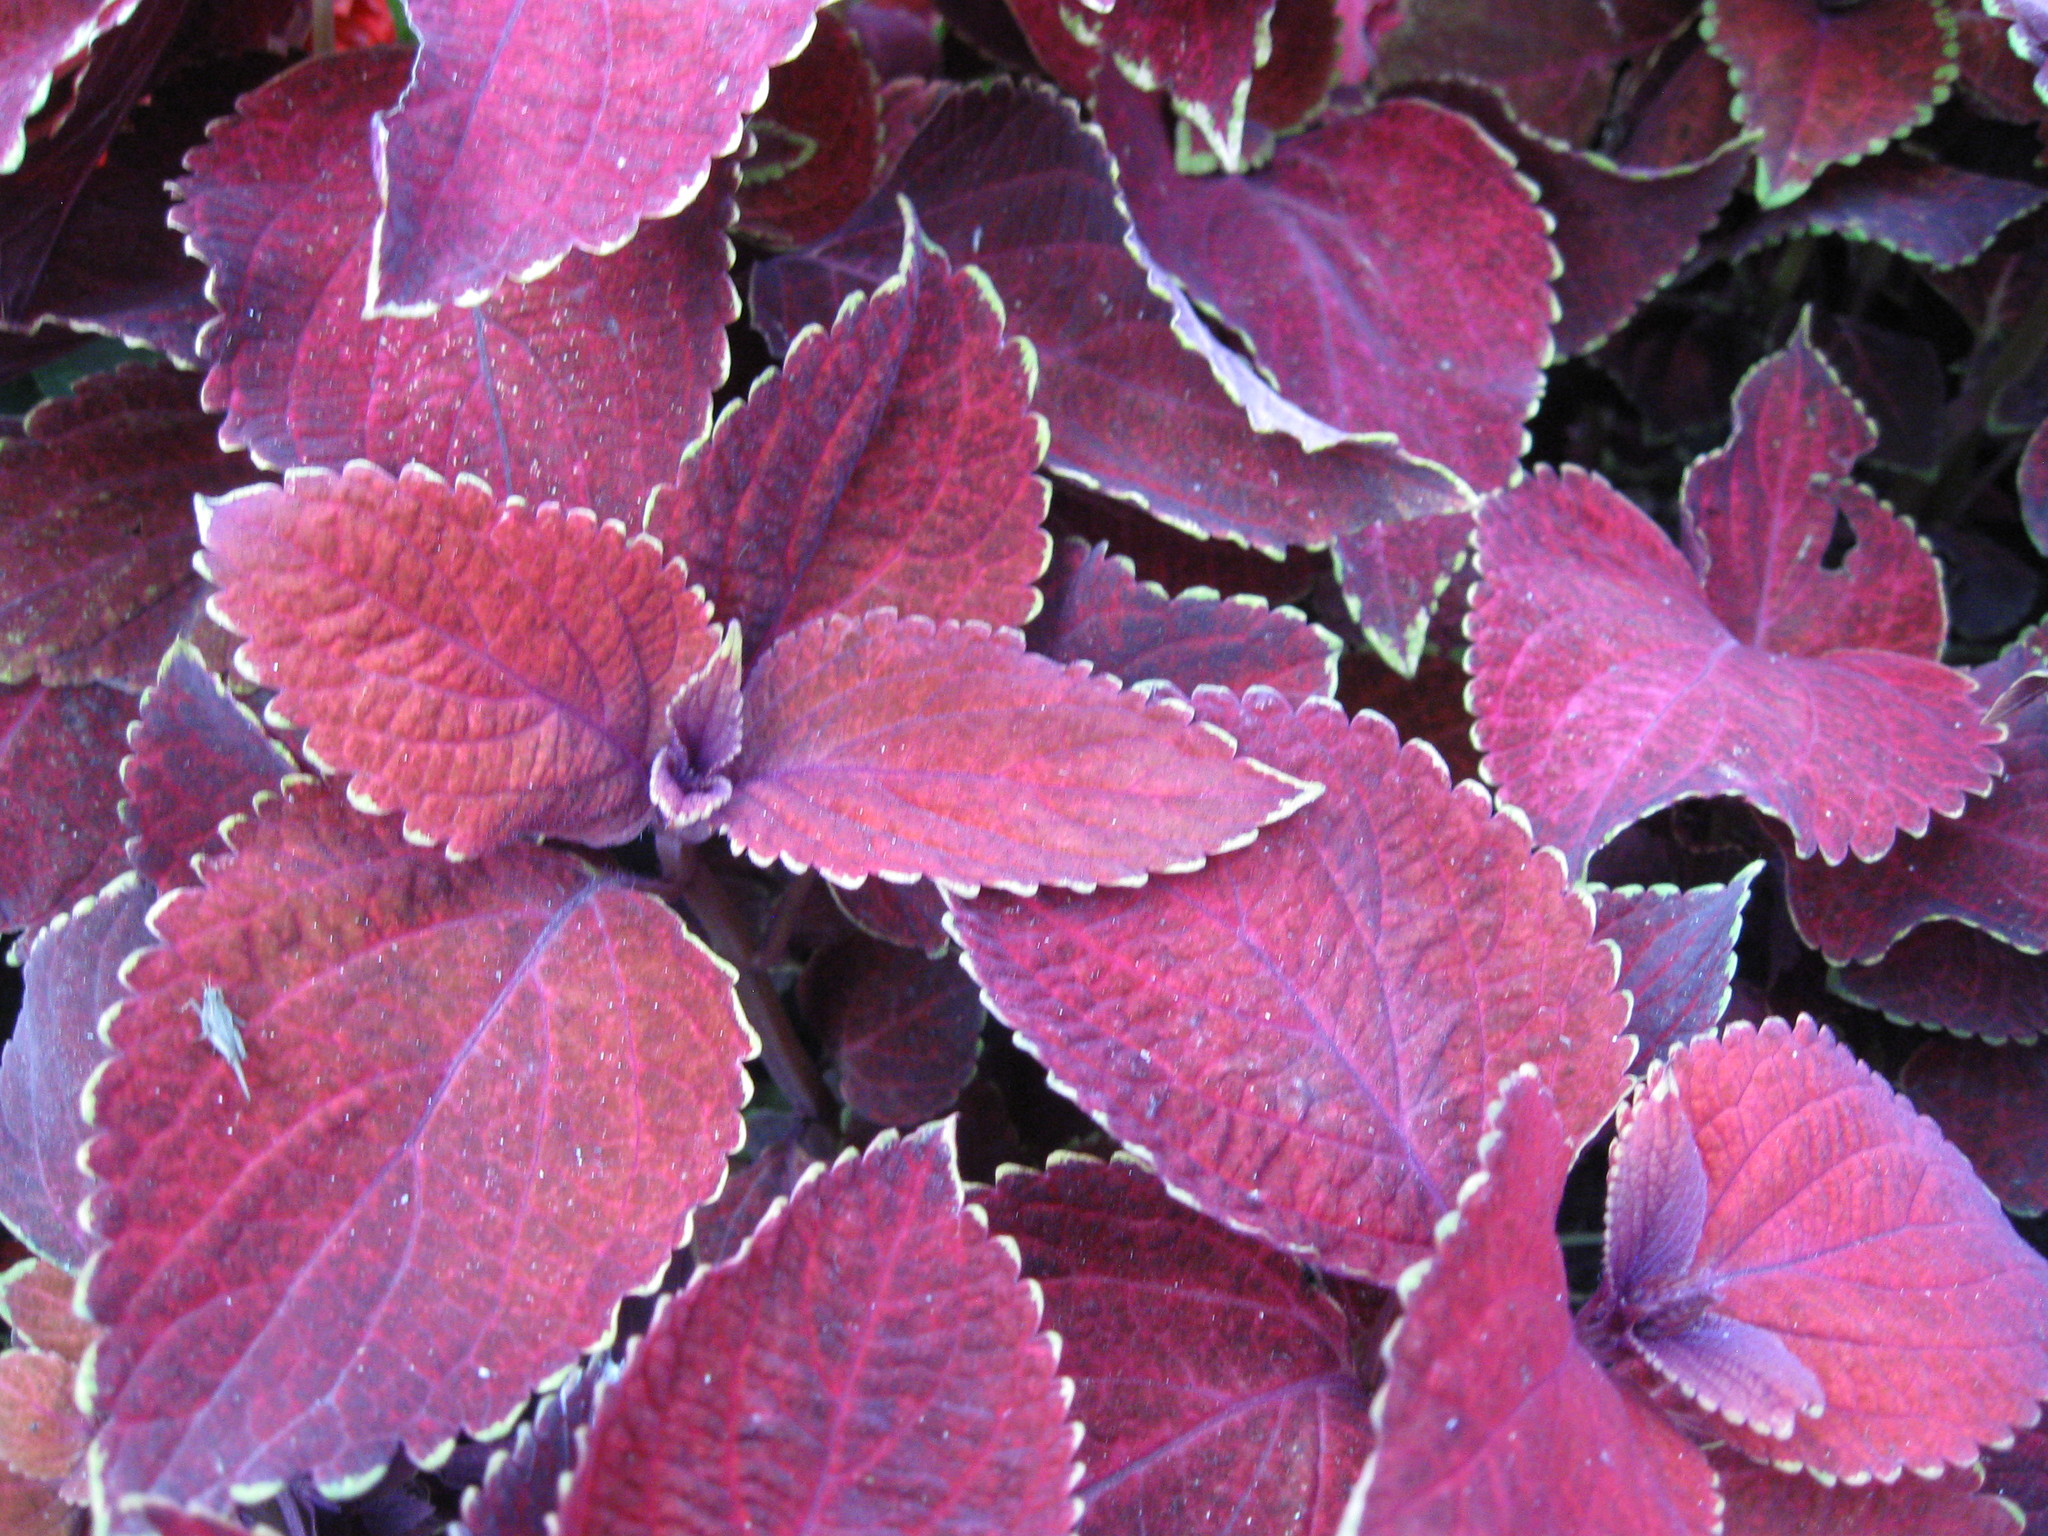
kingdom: Animalia
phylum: Arthropoda
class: Insecta
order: Orthoptera
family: Tetrigidae
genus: Tetrix
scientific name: Tetrix subulata
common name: Slender ground-hopper
